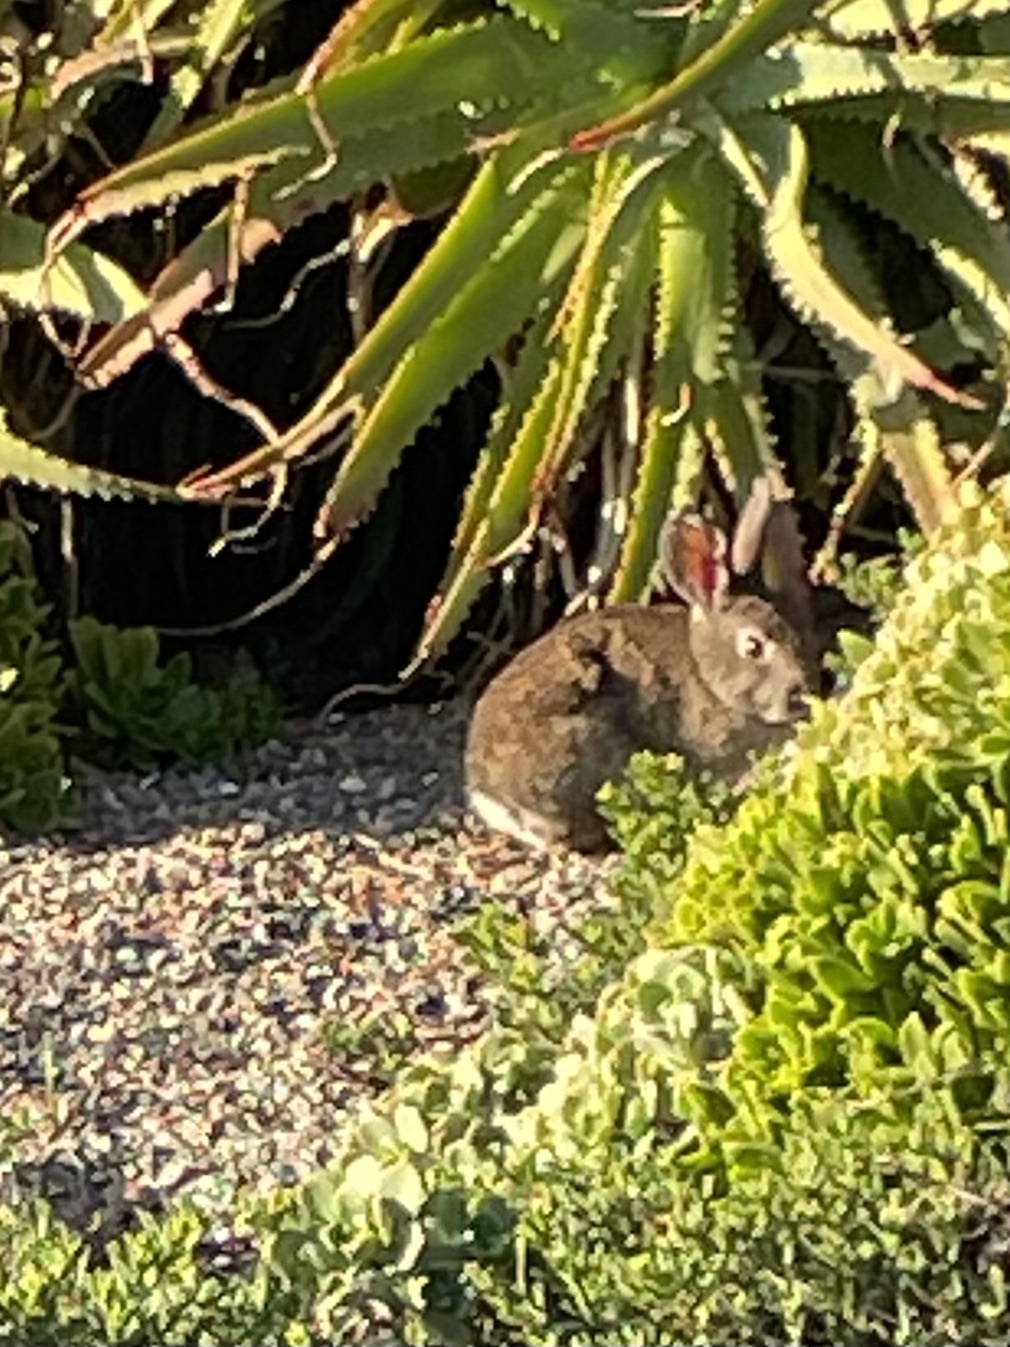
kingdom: Animalia
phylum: Chordata
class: Mammalia
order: Lagomorpha
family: Leporidae
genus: Sylvilagus
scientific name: Sylvilagus bachmani
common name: Brush rabbit
